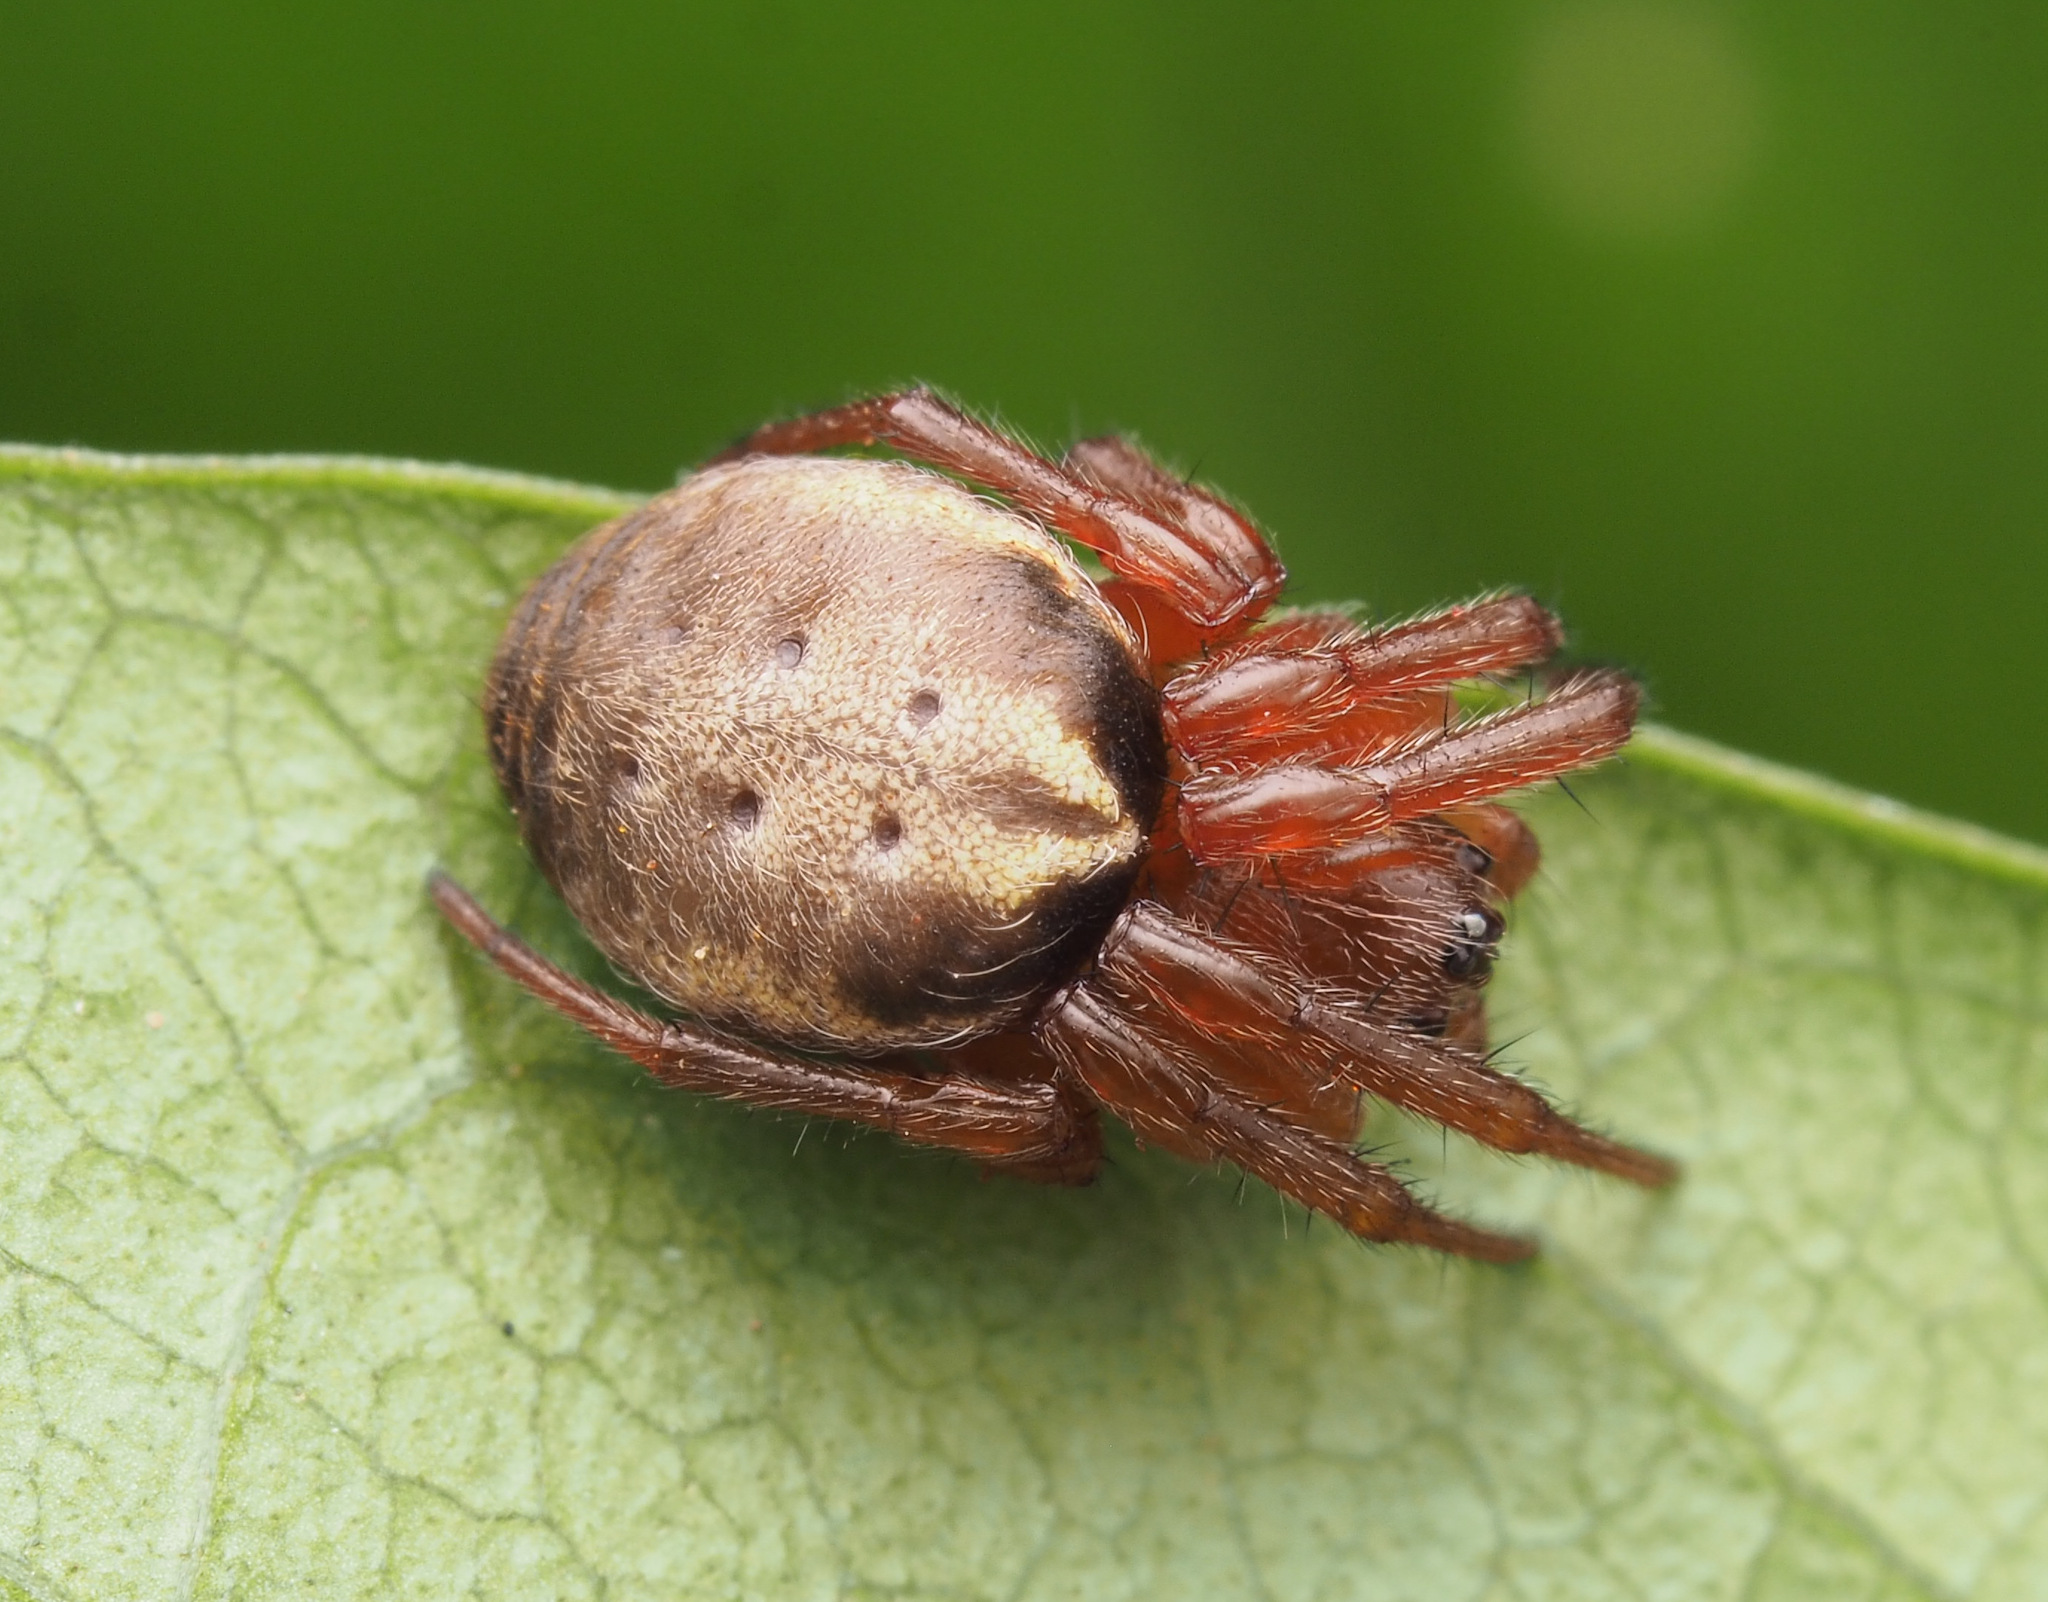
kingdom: Animalia
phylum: Arthropoda
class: Arachnida
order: Araneae
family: Araneidae
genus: Leviana
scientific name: Leviana folium
